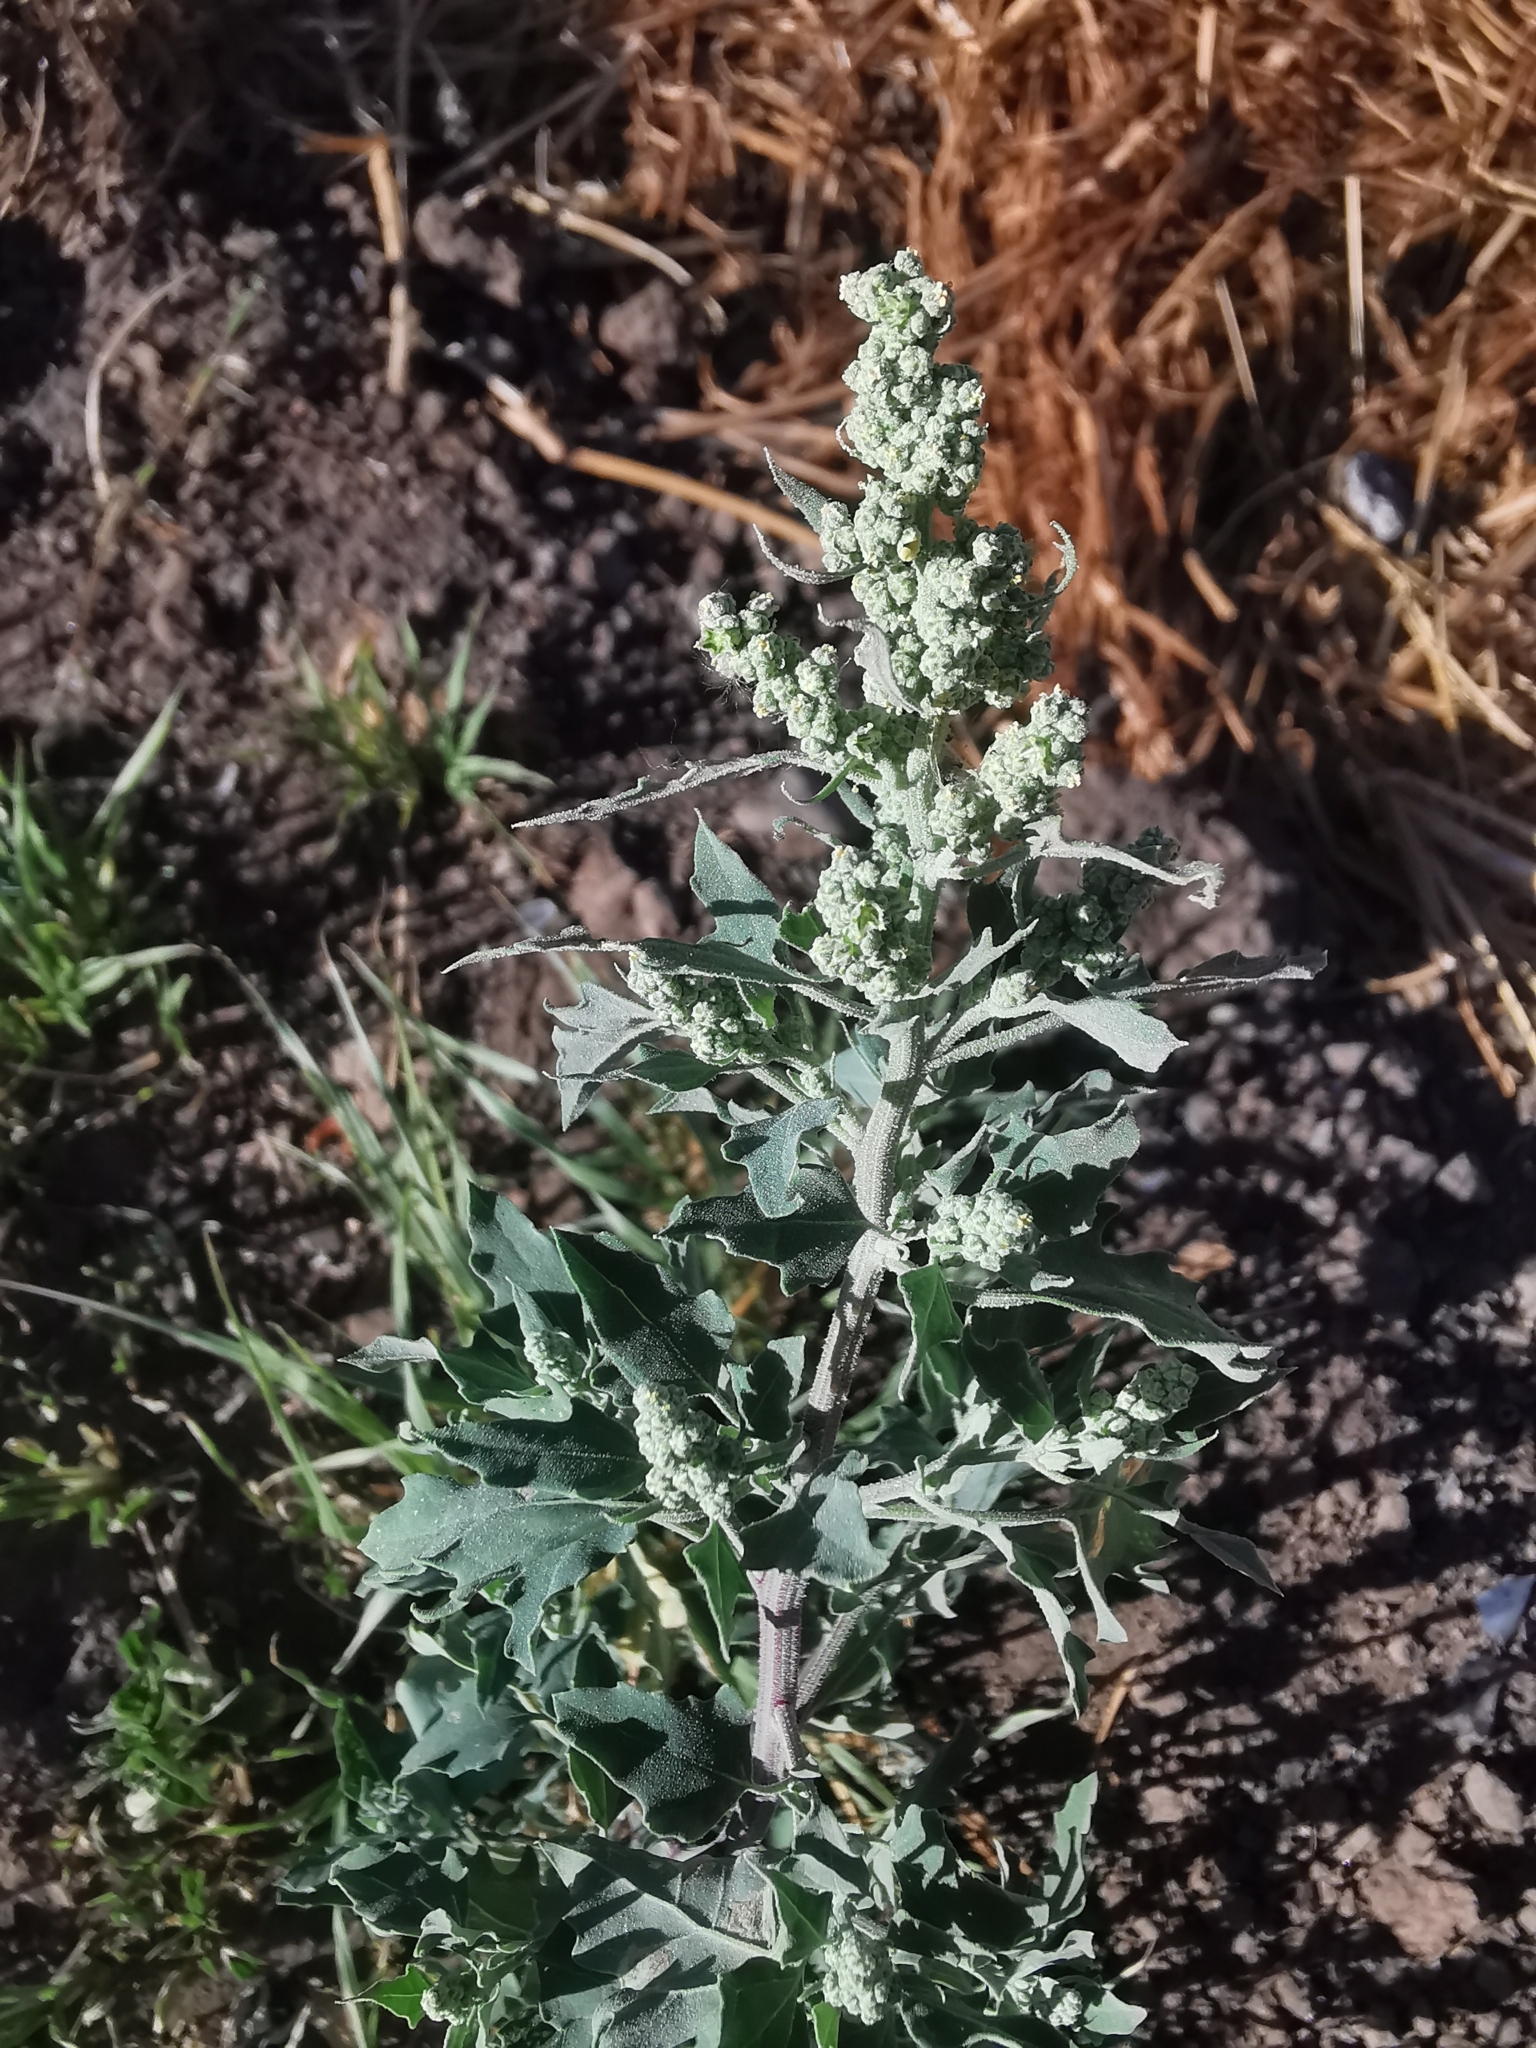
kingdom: Plantae
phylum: Tracheophyta
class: Magnoliopsida
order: Caryophyllales
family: Amaranthaceae
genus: Chenopodium
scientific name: Chenopodium album
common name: Fat-hen
